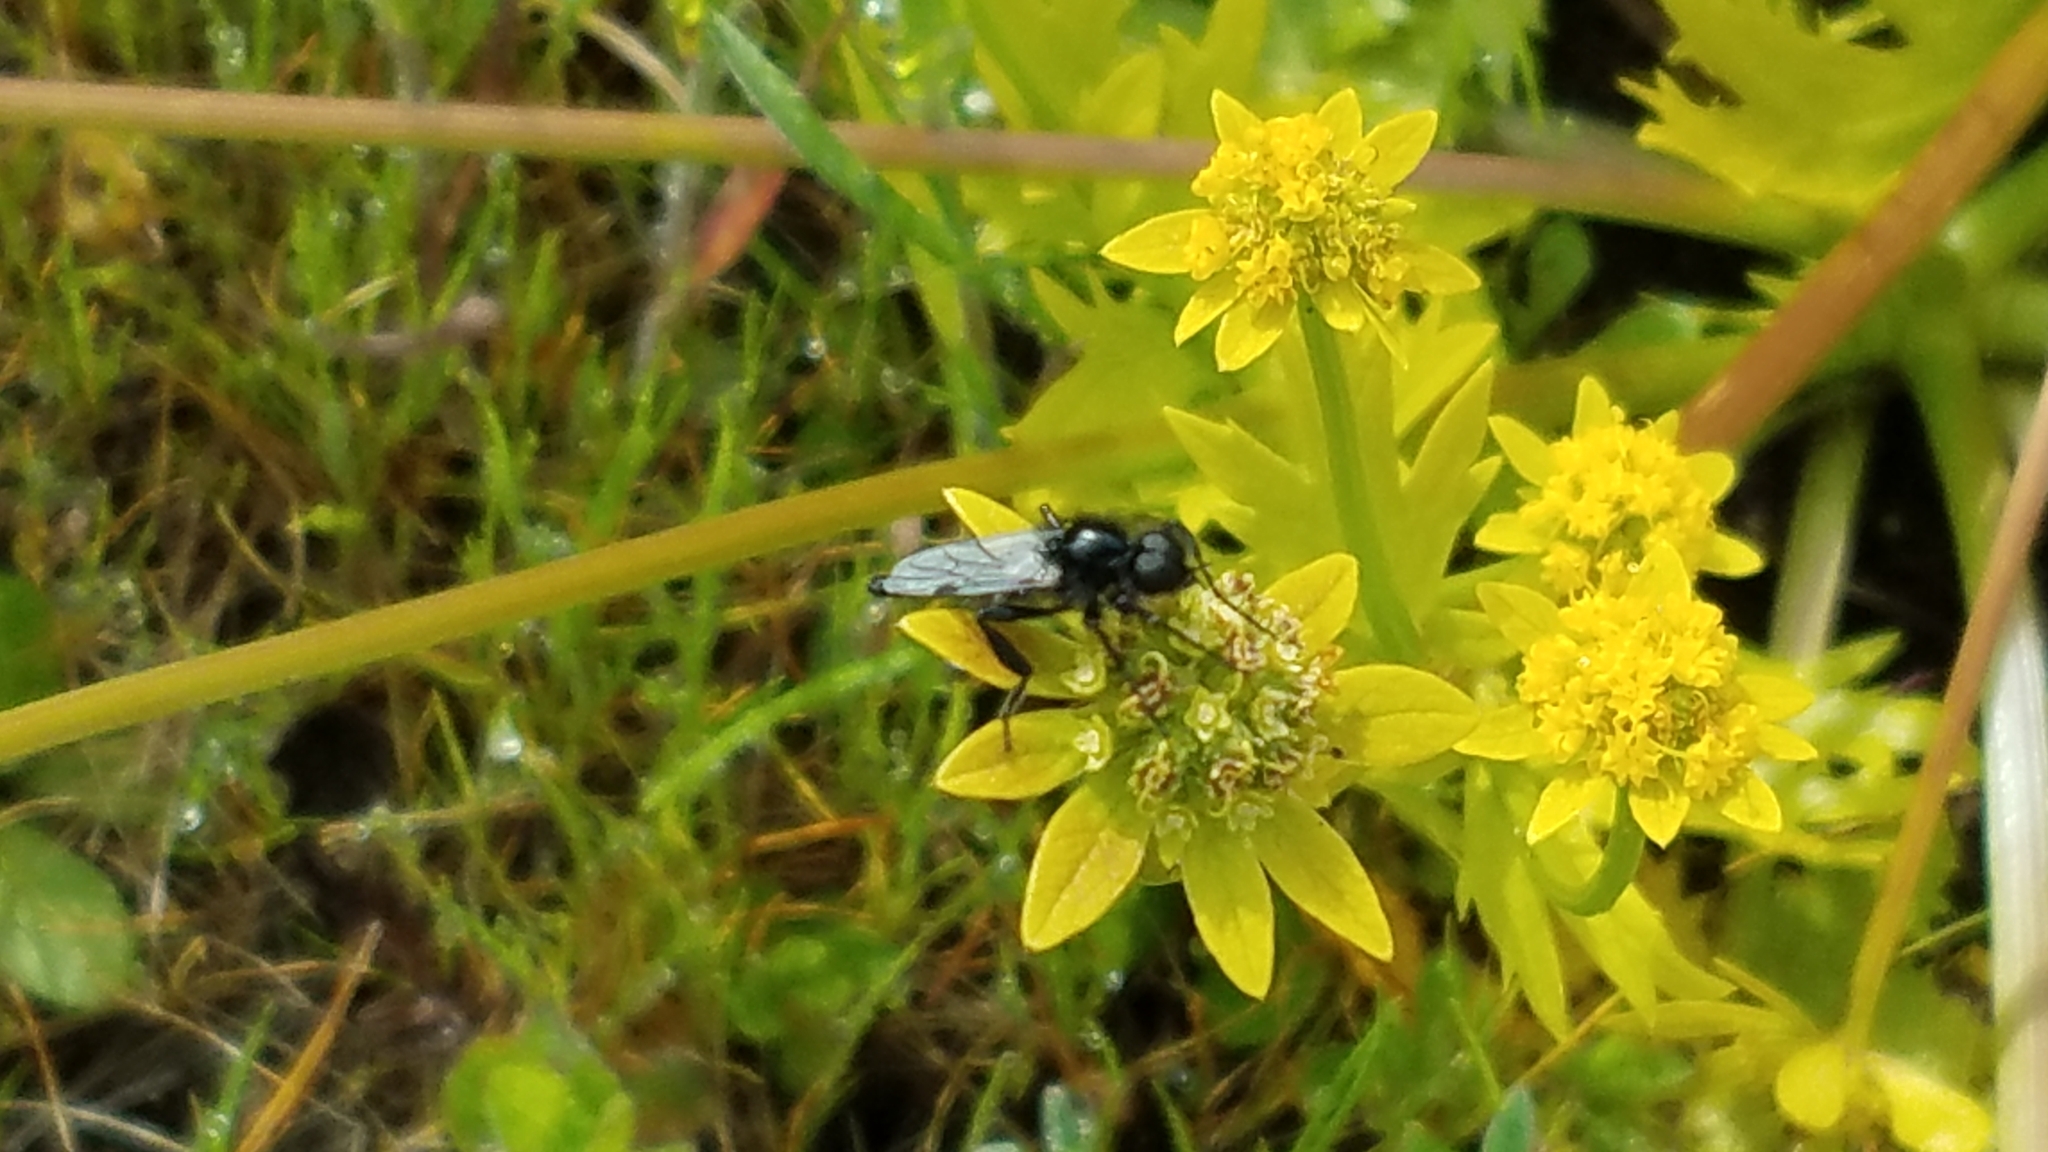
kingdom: Animalia
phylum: Arthropoda
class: Insecta
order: Diptera
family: Bibionidae
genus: Bibio
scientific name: Bibio necotus
